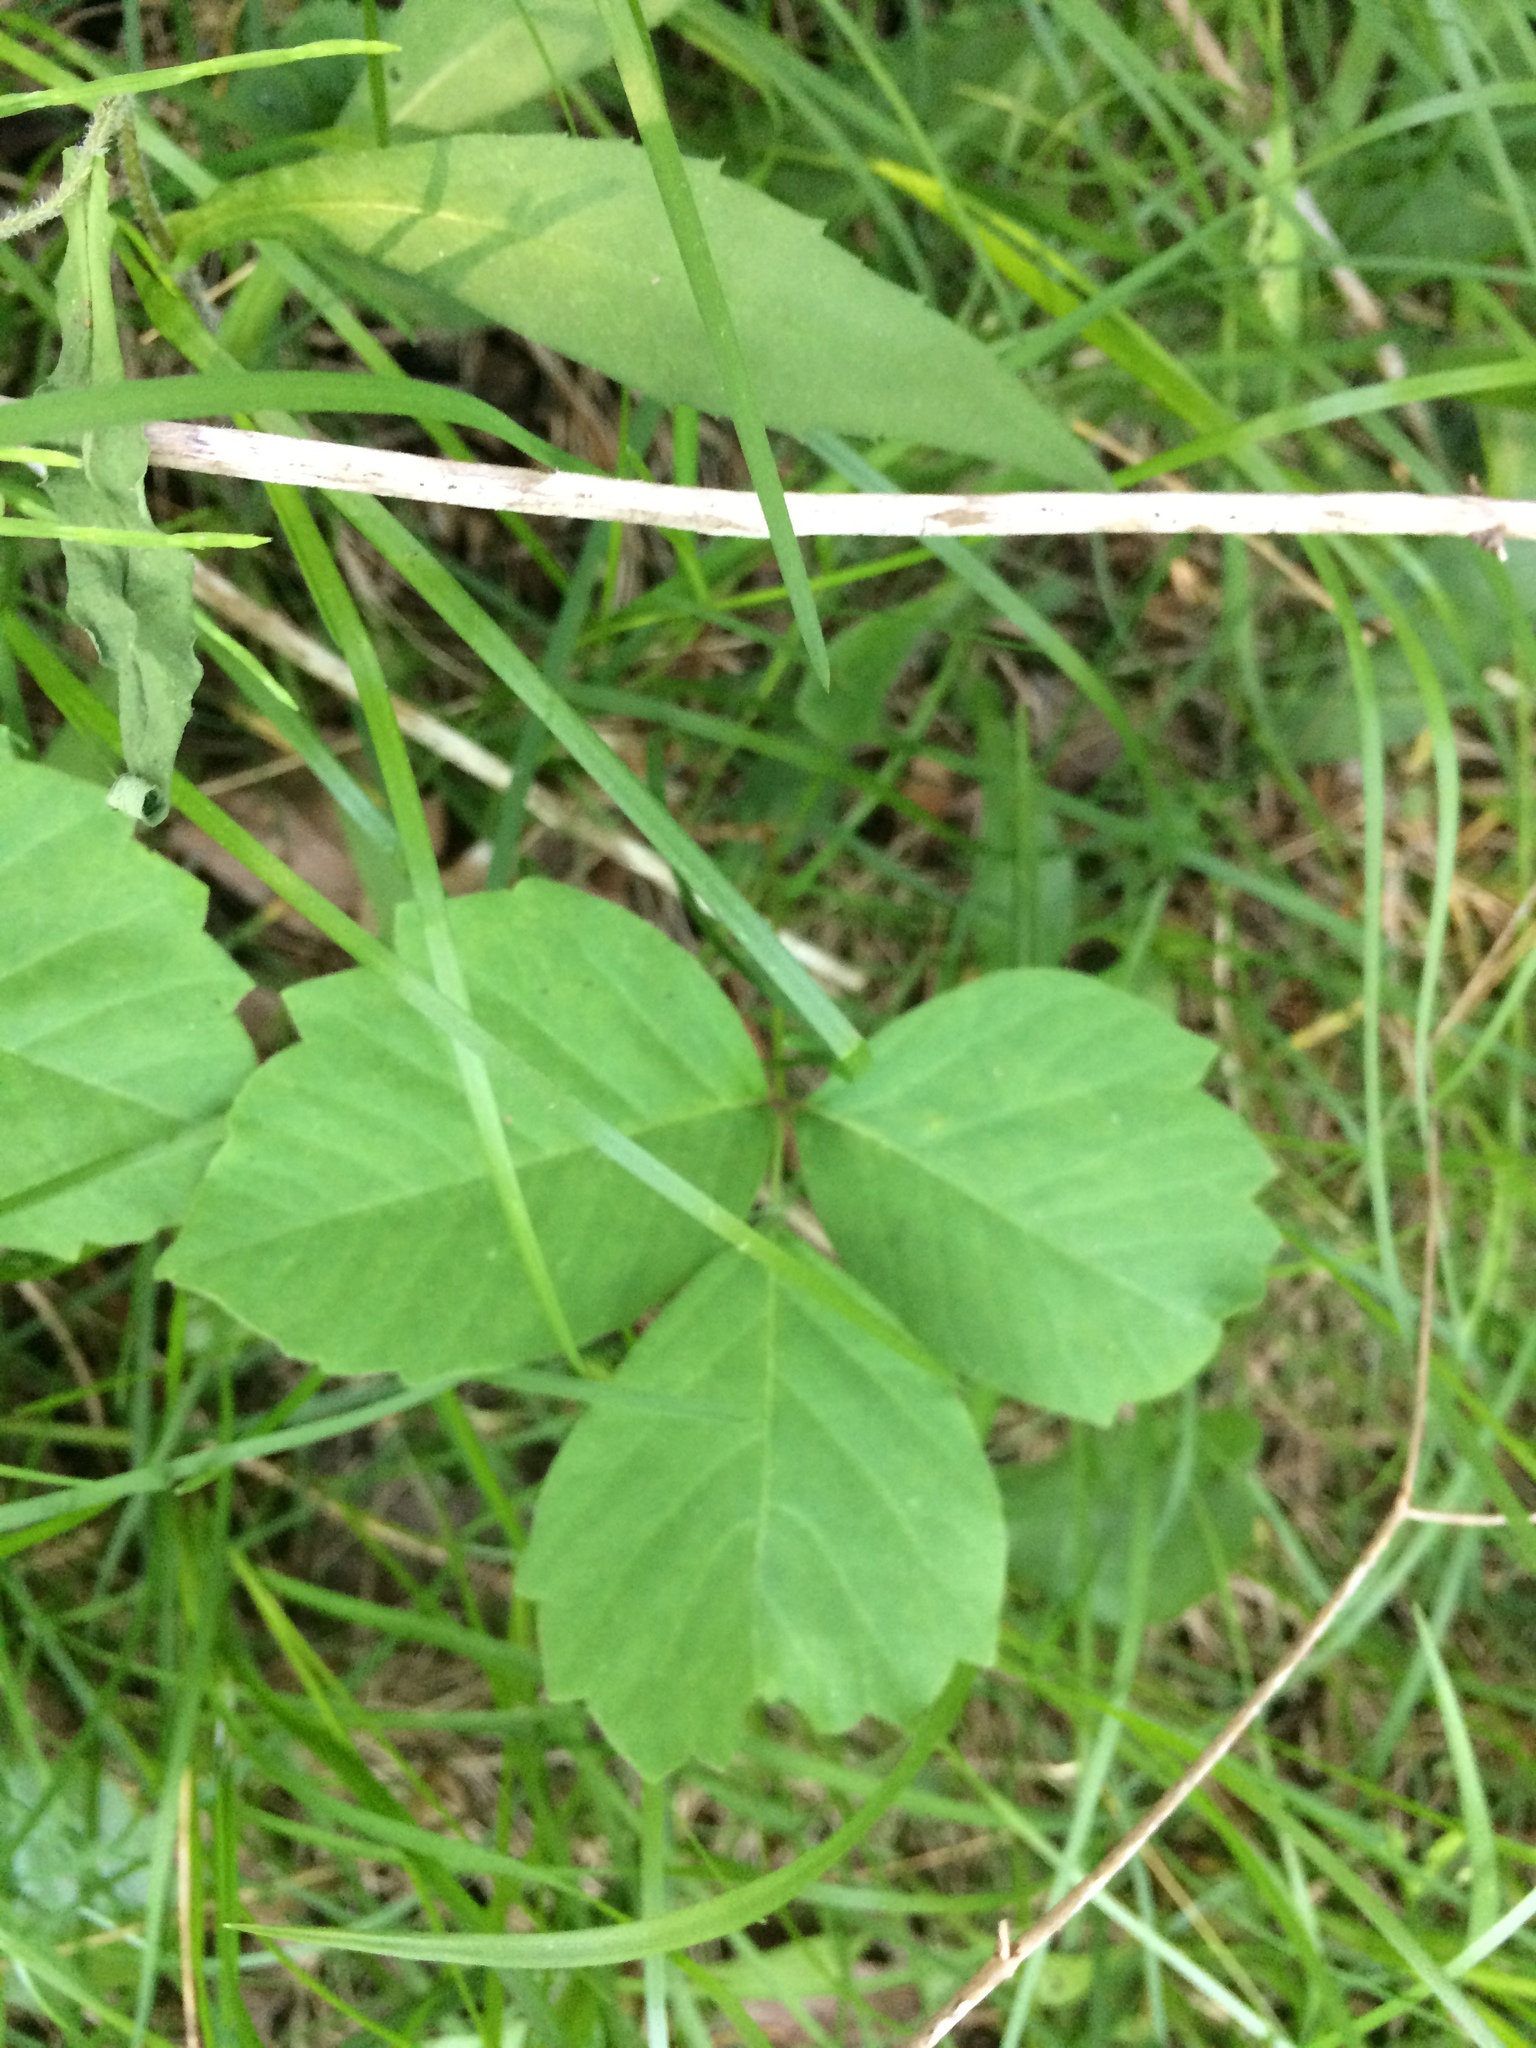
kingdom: Plantae
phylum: Tracheophyta
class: Magnoliopsida
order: Sapindales
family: Anacardiaceae
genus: Toxicodendron
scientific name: Toxicodendron rydbergii
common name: Rydberg's poison-ivy
